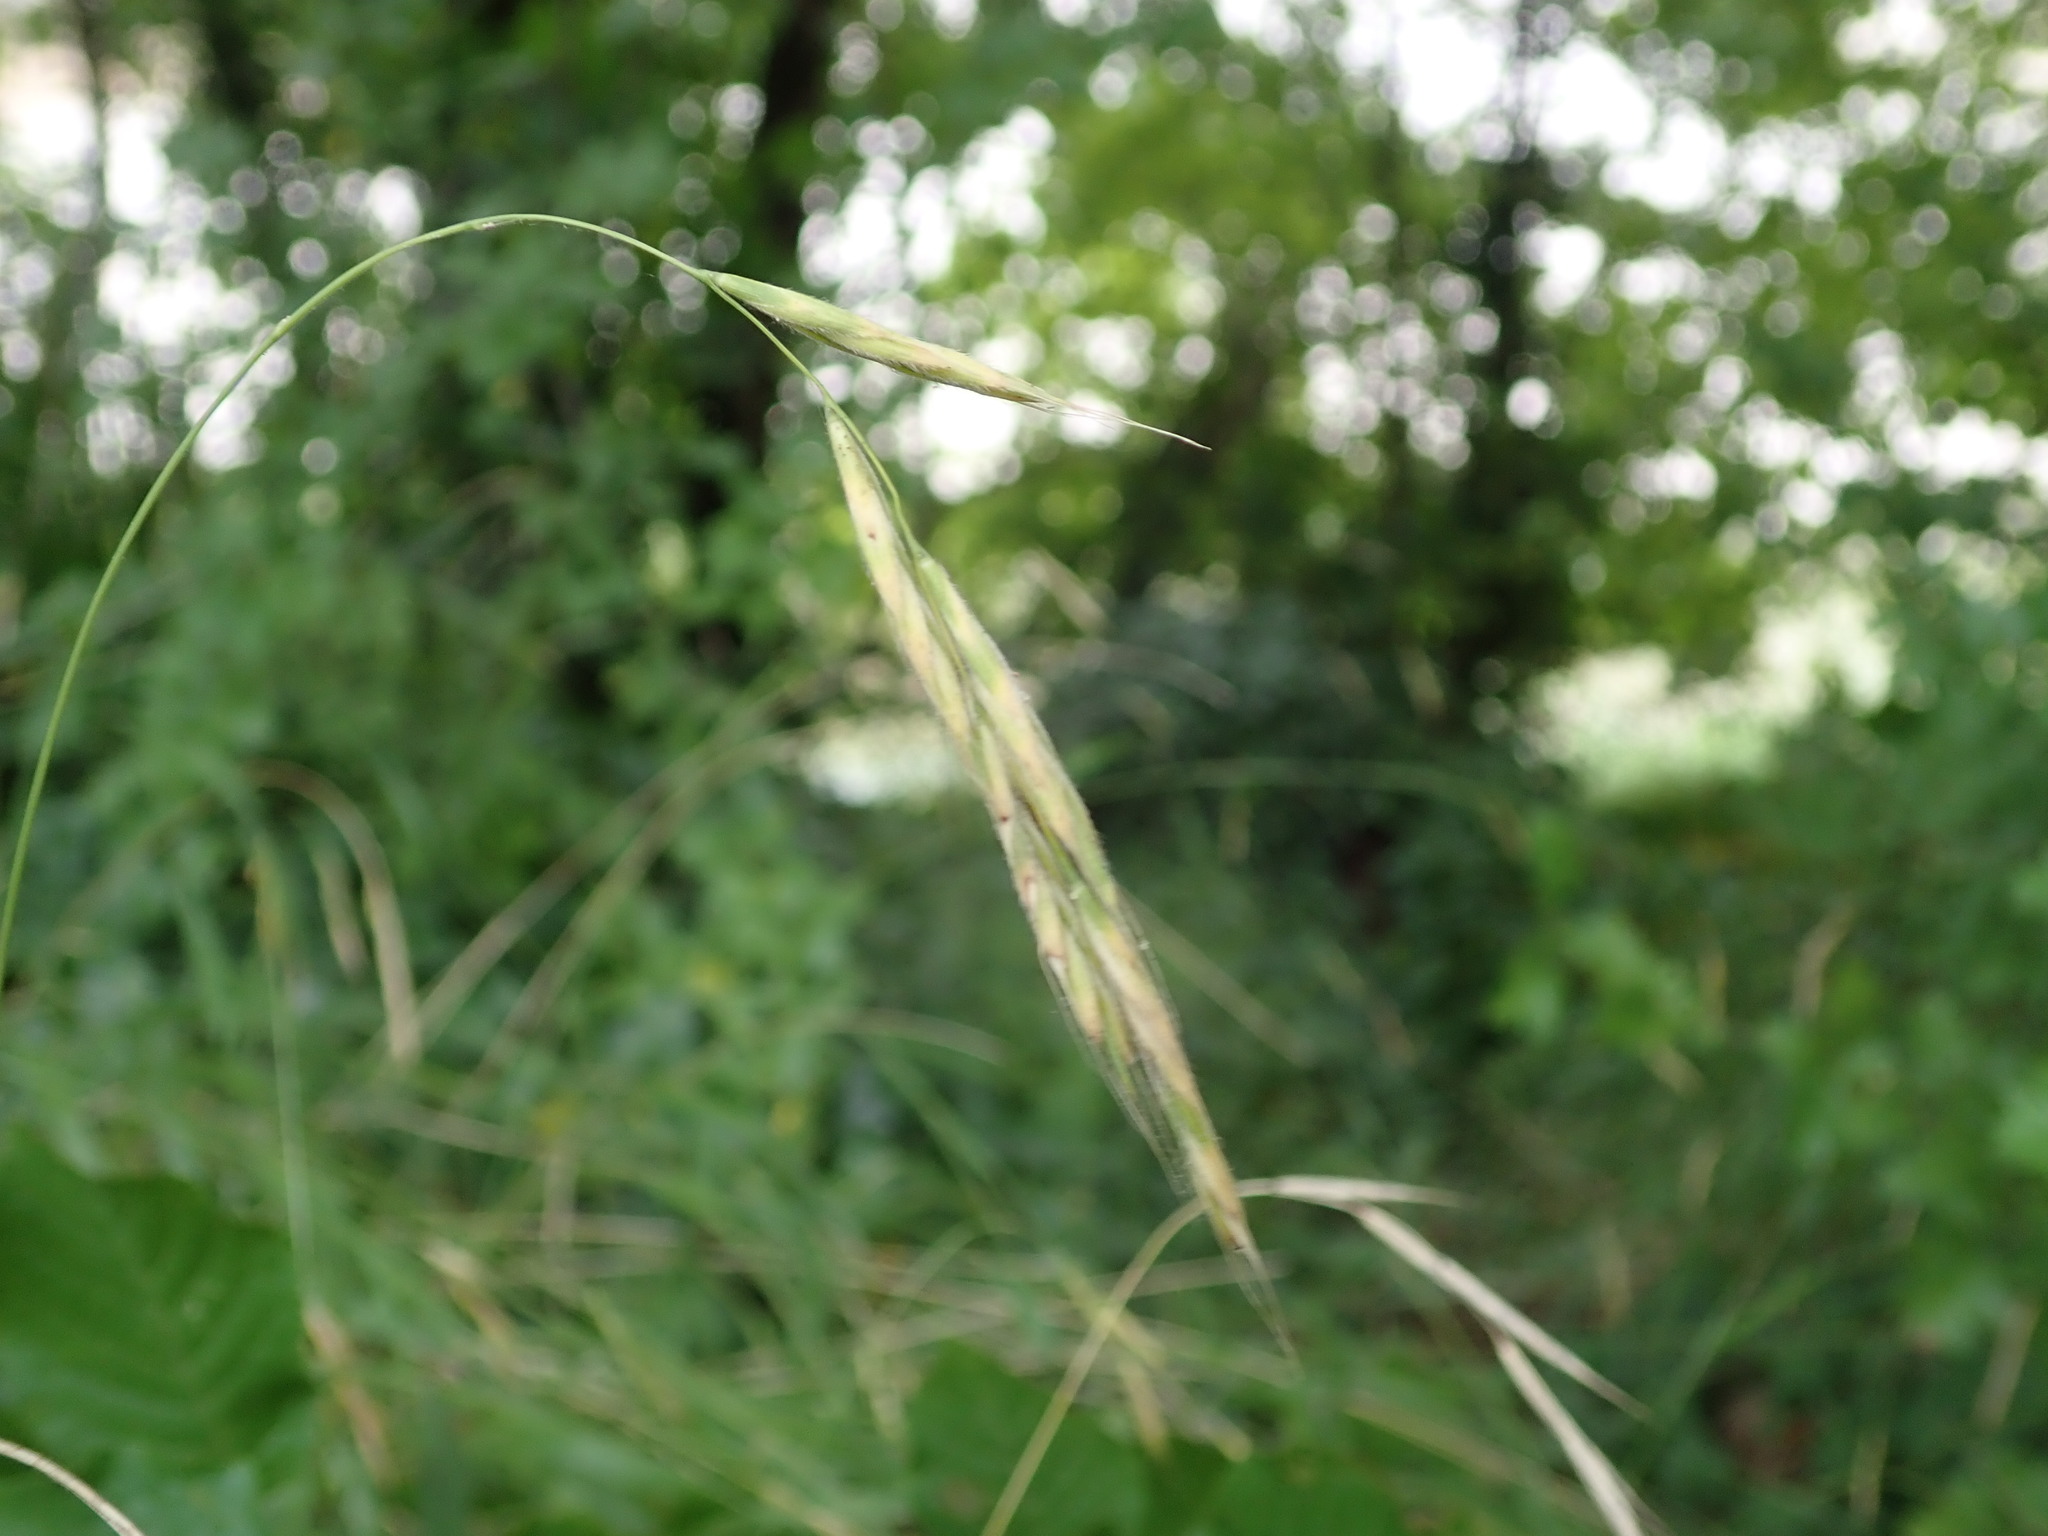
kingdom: Plantae
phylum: Tracheophyta
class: Liliopsida
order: Poales
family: Poaceae
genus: Brachypodium
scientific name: Brachypodium sylvaticum
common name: False-brome
